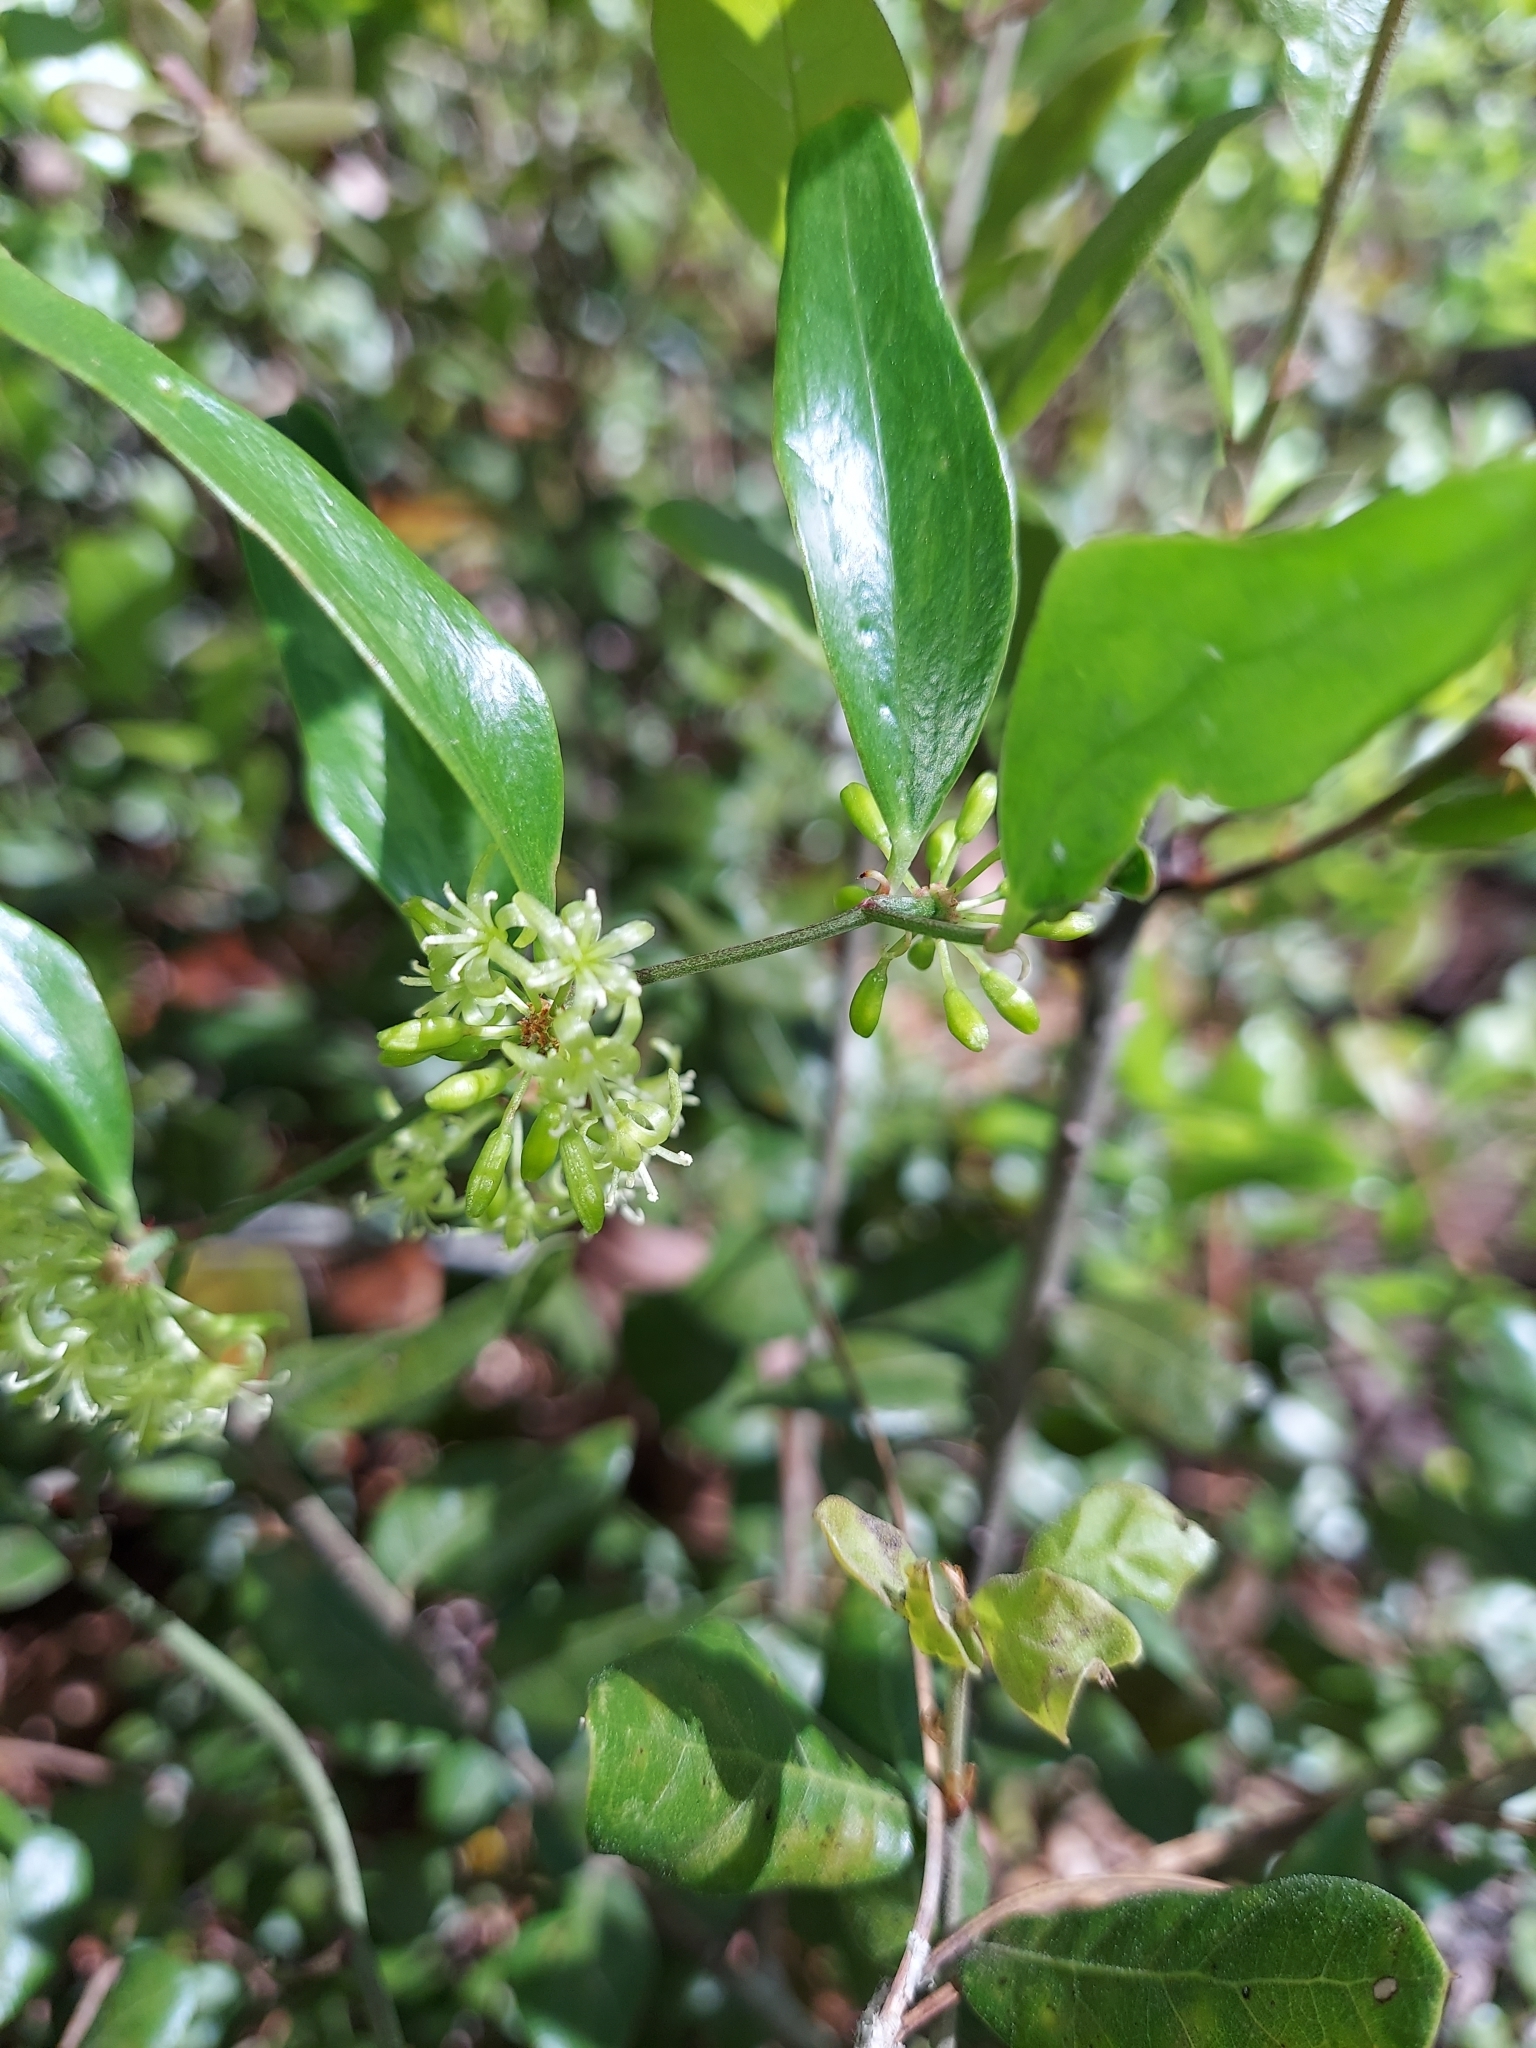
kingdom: Plantae
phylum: Tracheophyta
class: Liliopsida
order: Liliales
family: Smilacaceae
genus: Smilax
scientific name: Smilax auriculata
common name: Wild bamboo
